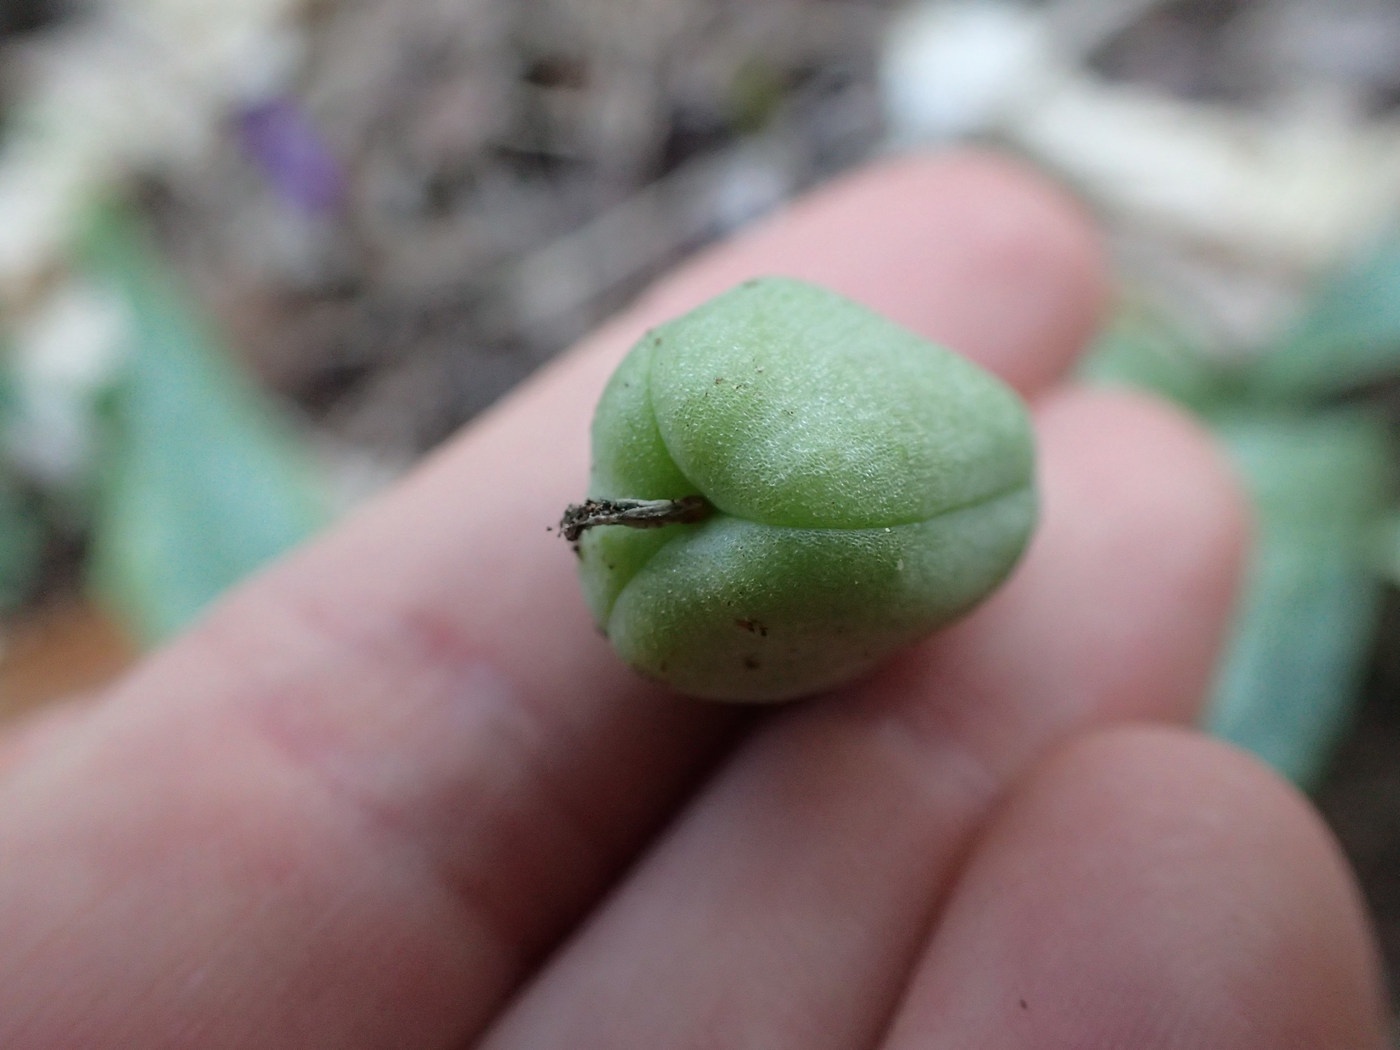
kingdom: Plantae
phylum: Tracheophyta
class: Liliopsida
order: Liliales
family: Liliaceae
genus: Erythronium
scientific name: Erythronium umbilicatum
